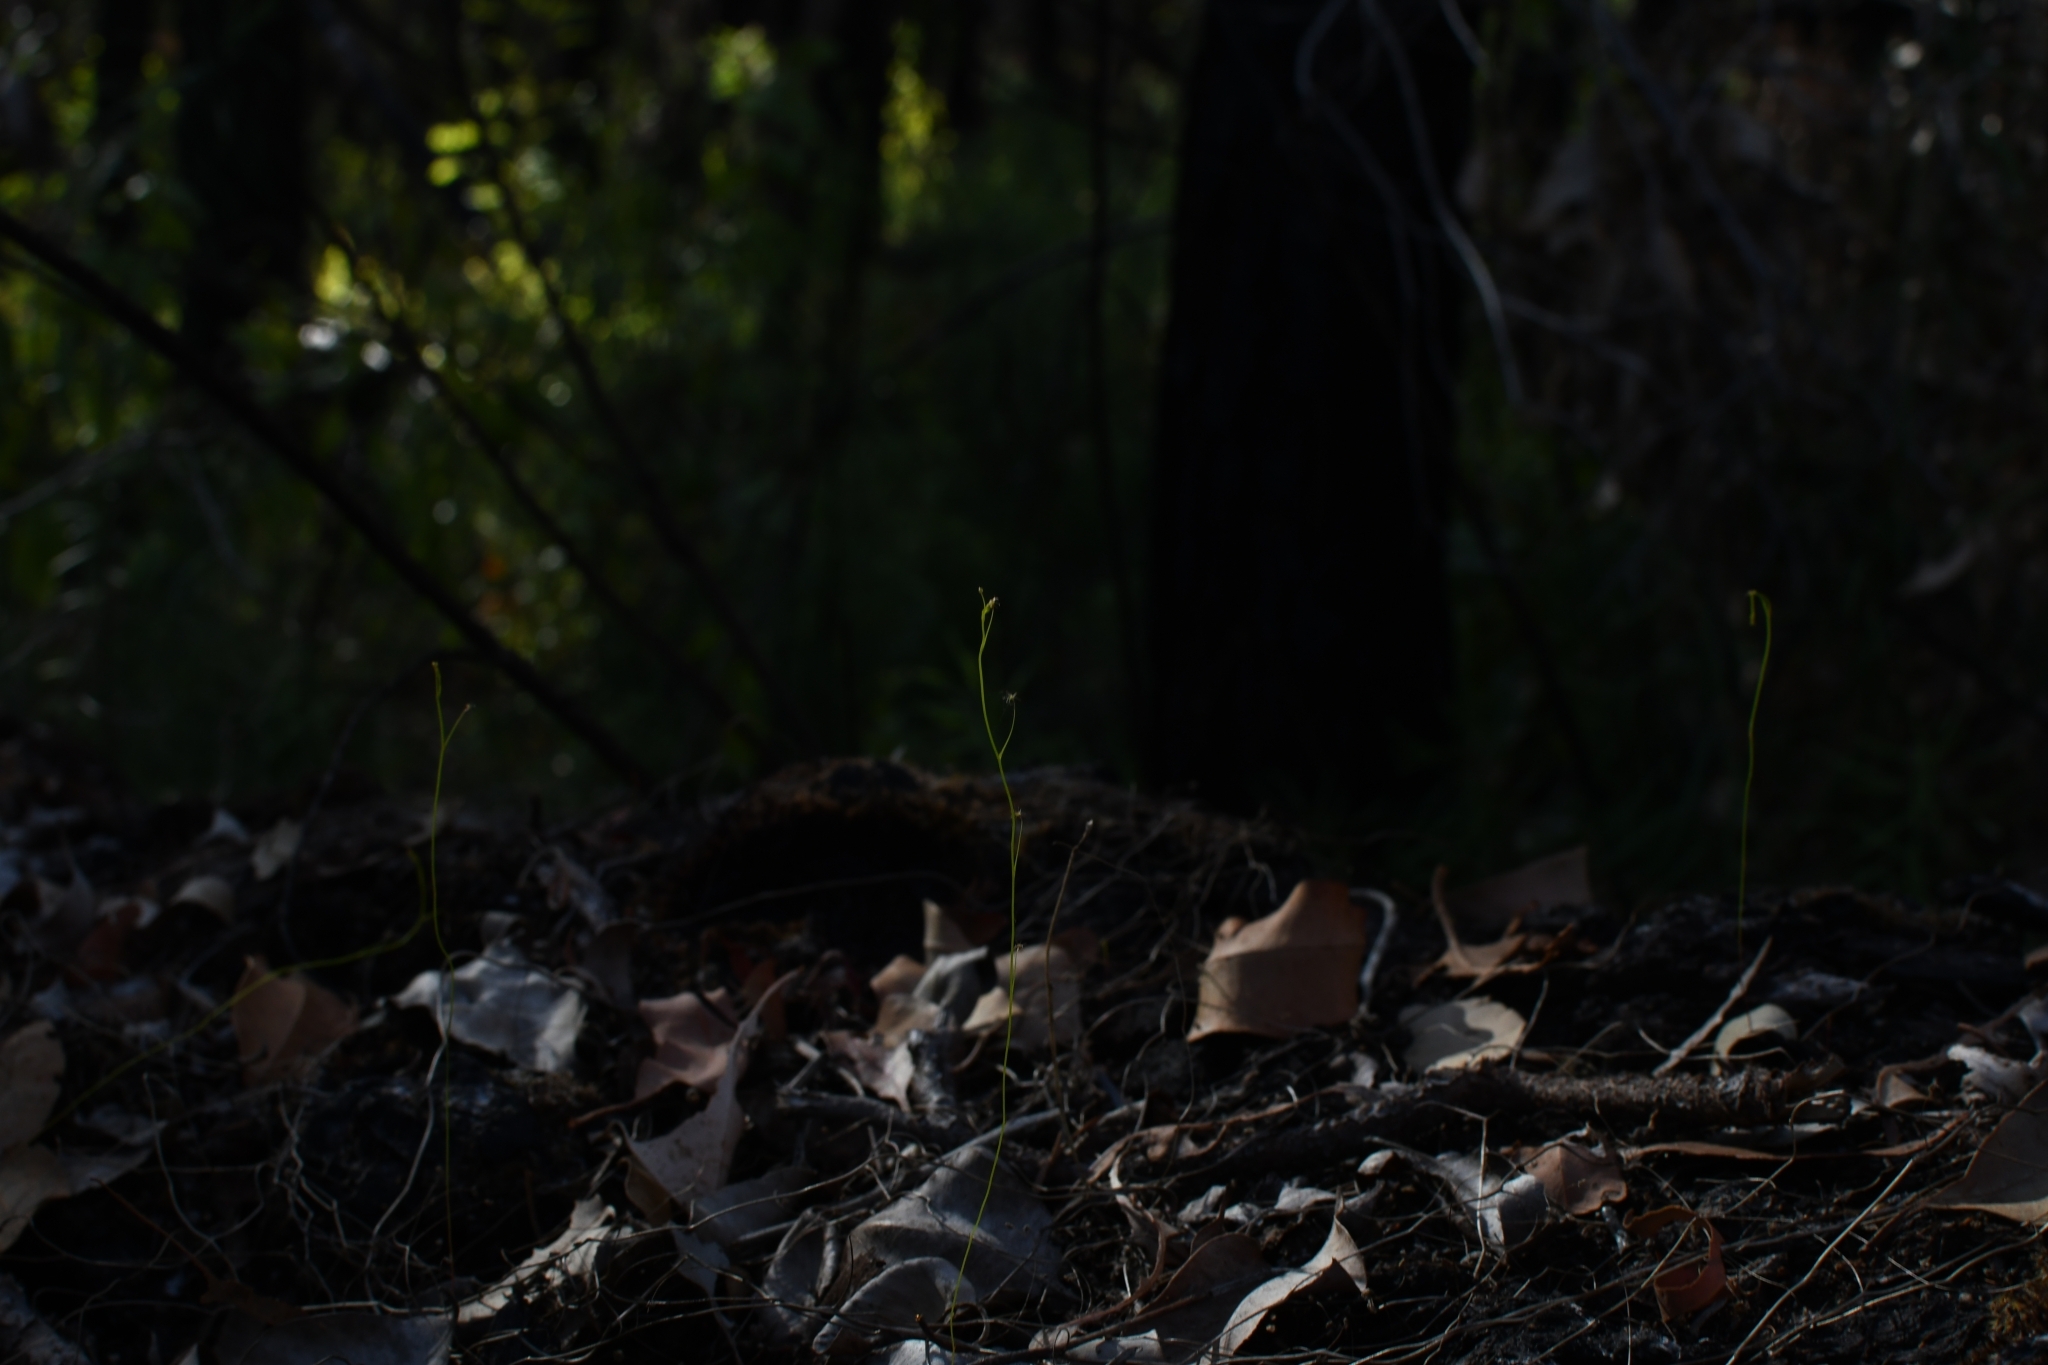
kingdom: Plantae
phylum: Tracheophyta
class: Magnoliopsida
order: Caryophyllales
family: Droseraceae
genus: Drosera
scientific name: Drosera modesta
